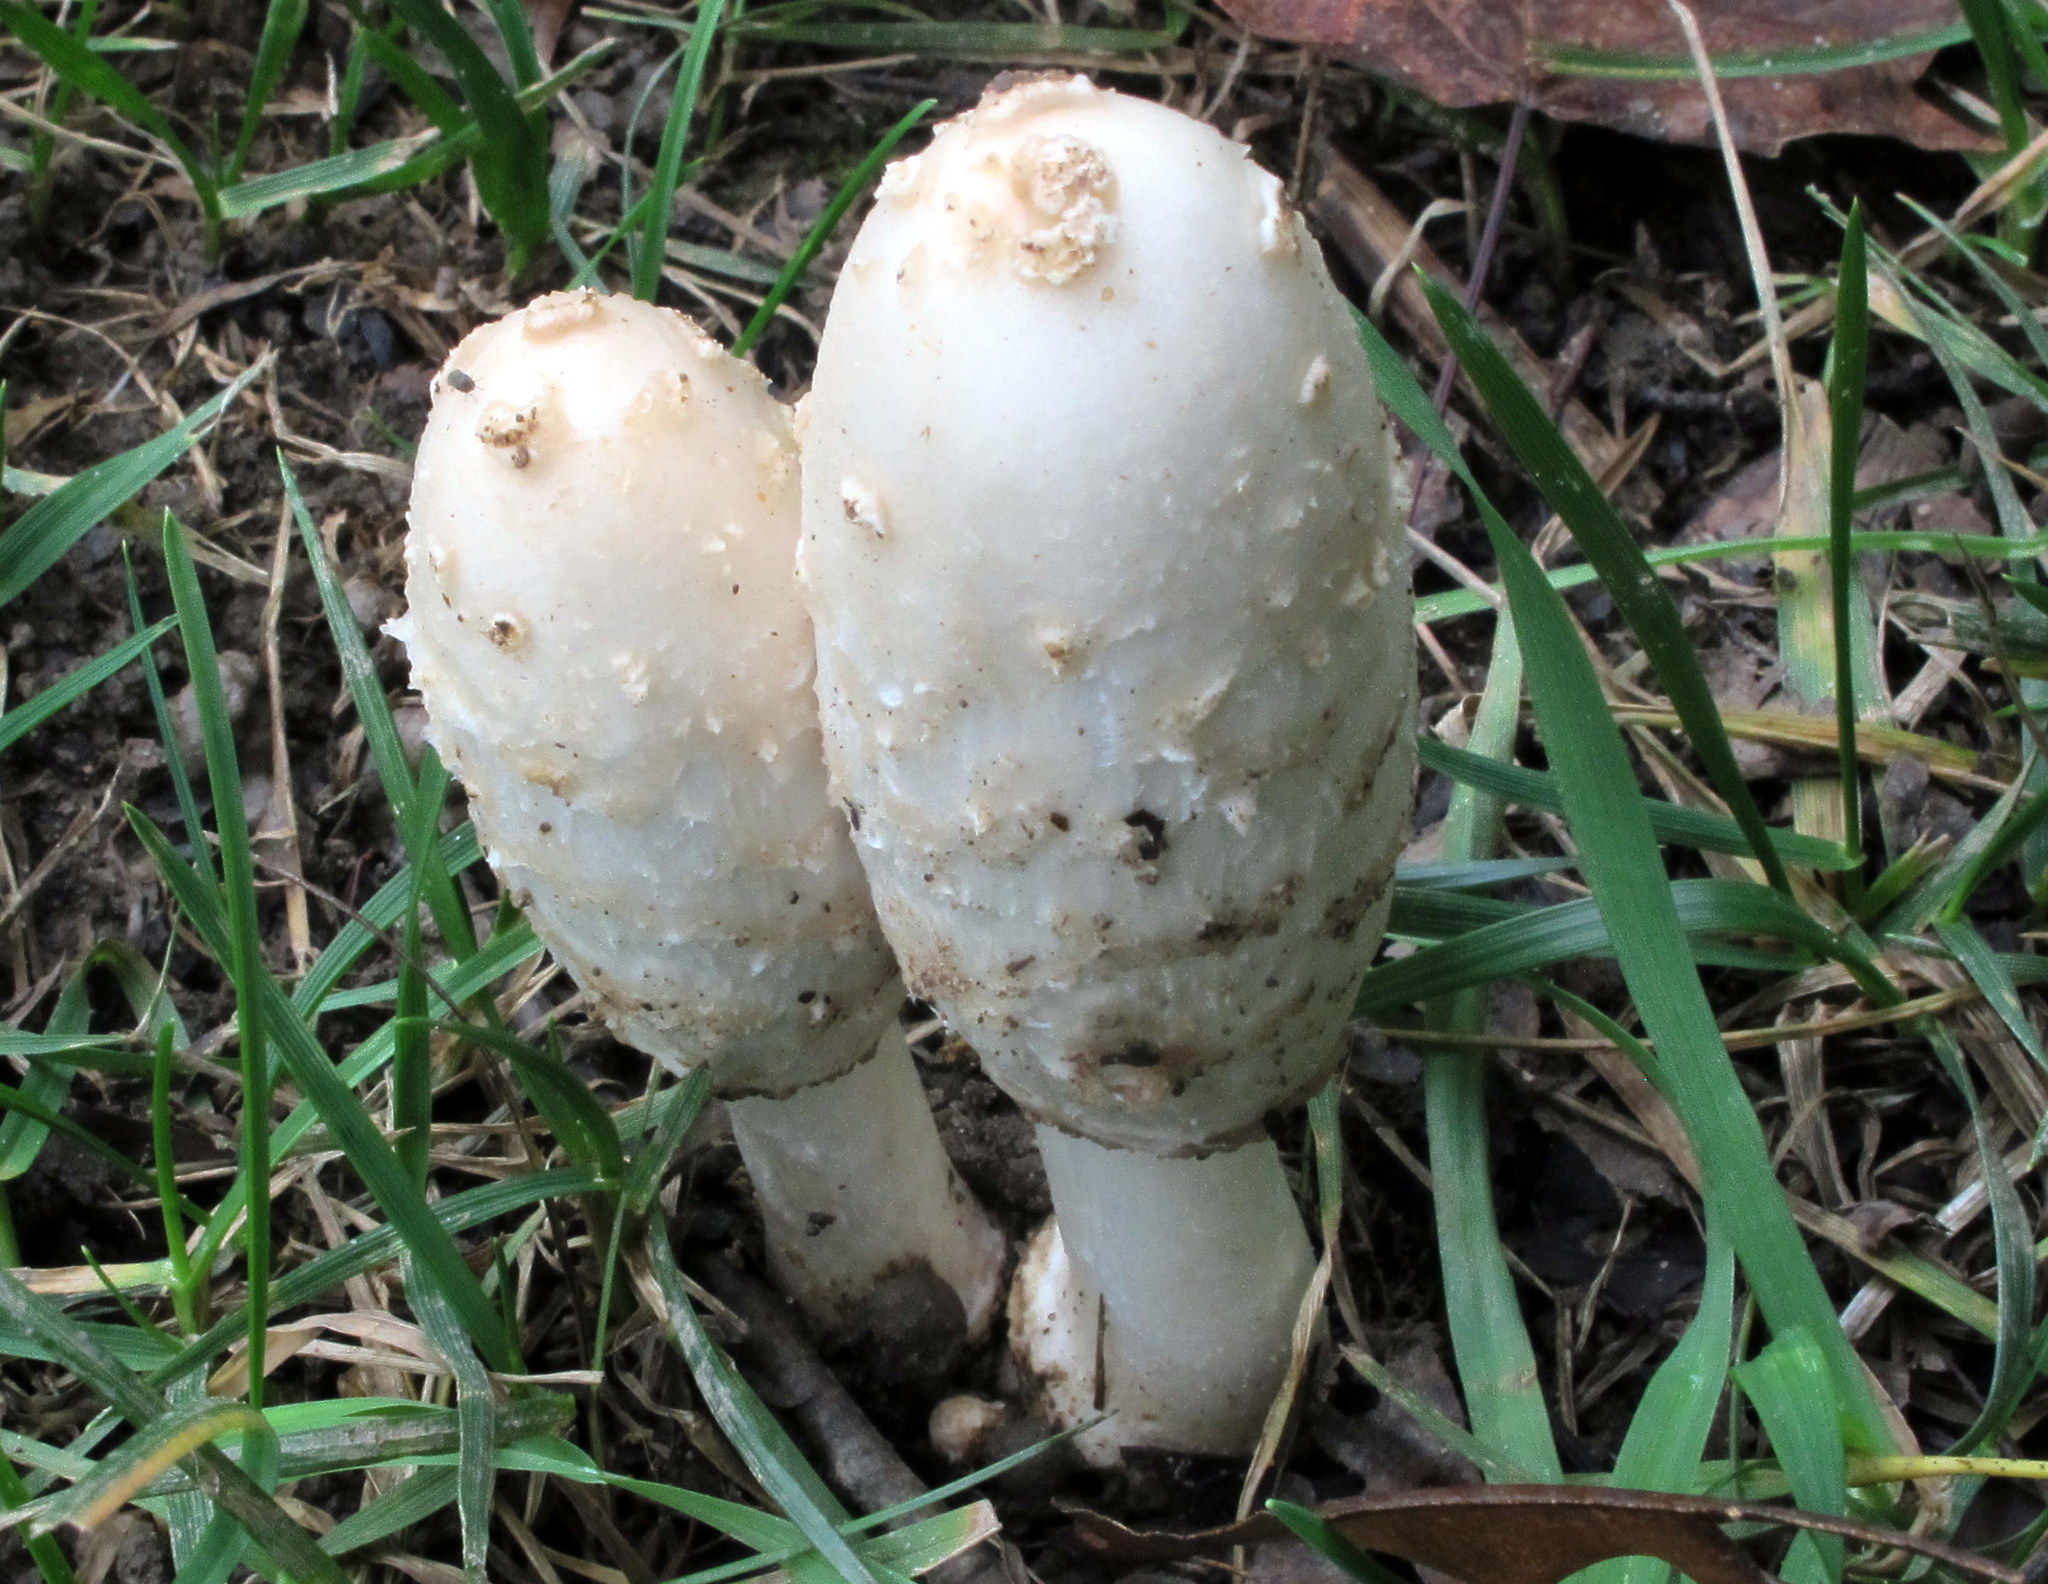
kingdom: Fungi
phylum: Basidiomycota
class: Agaricomycetes
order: Agaricales
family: Agaricaceae
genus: Coprinus
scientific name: Coprinus comatus
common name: Lawyer's wig
